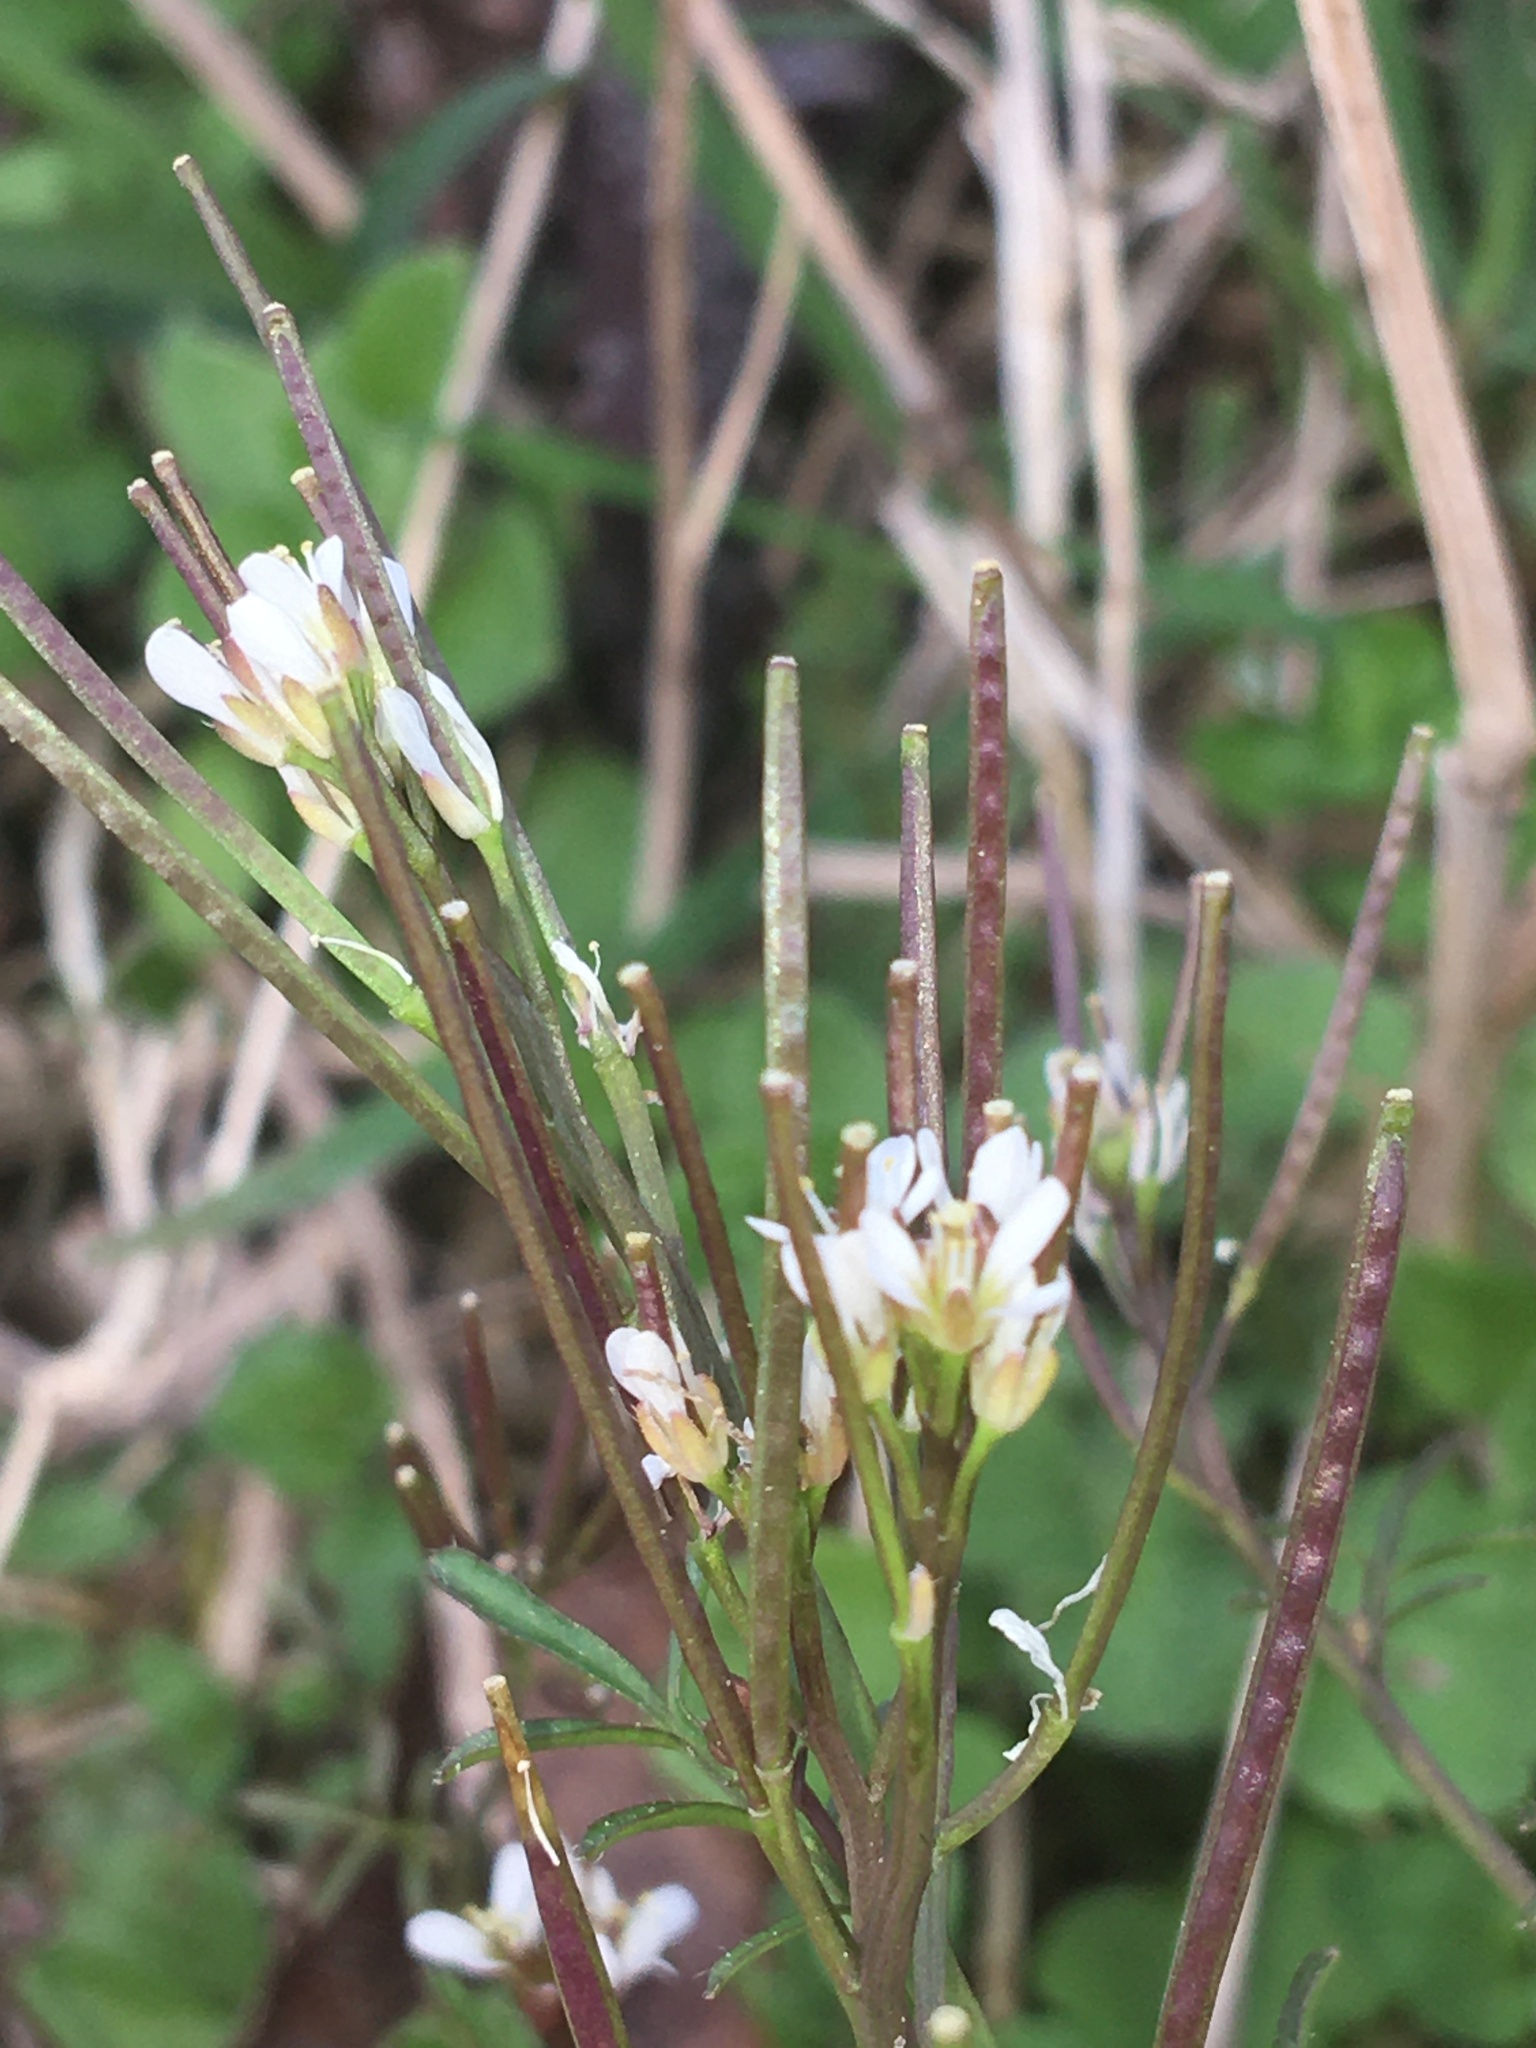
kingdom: Plantae
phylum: Tracheophyta
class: Magnoliopsida
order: Brassicales
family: Brassicaceae
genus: Cardamine
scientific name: Cardamine hirsuta
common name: Hairy bittercress
